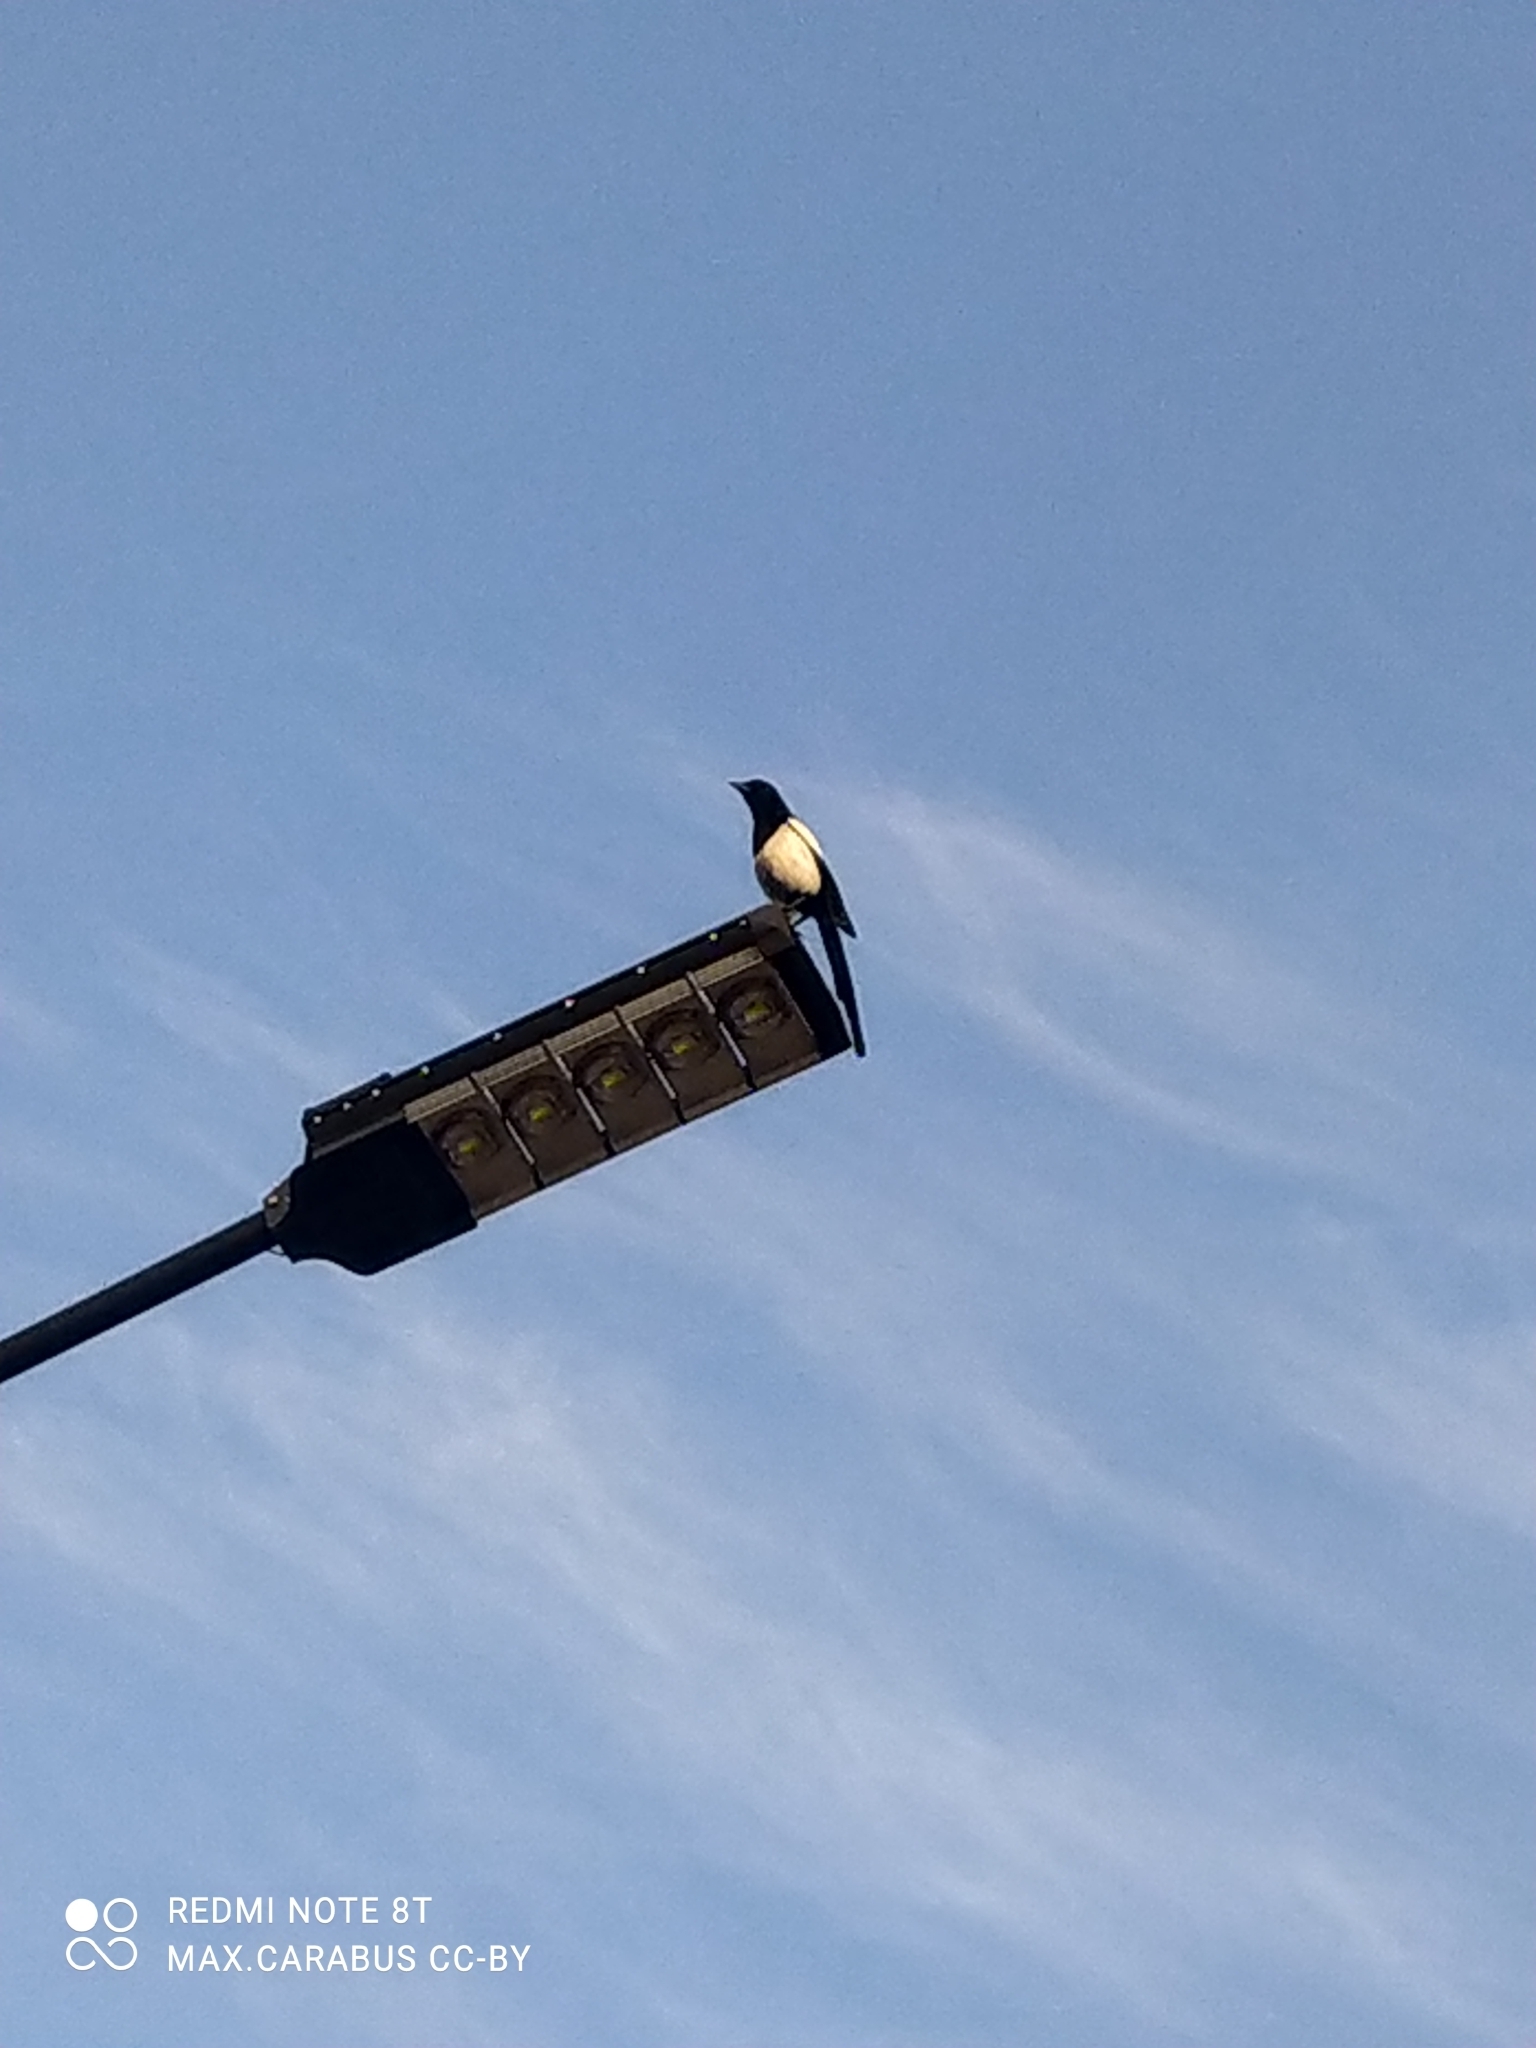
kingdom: Animalia
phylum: Chordata
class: Aves
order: Passeriformes
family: Corvidae
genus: Pica
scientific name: Pica pica
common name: Eurasian magpie
